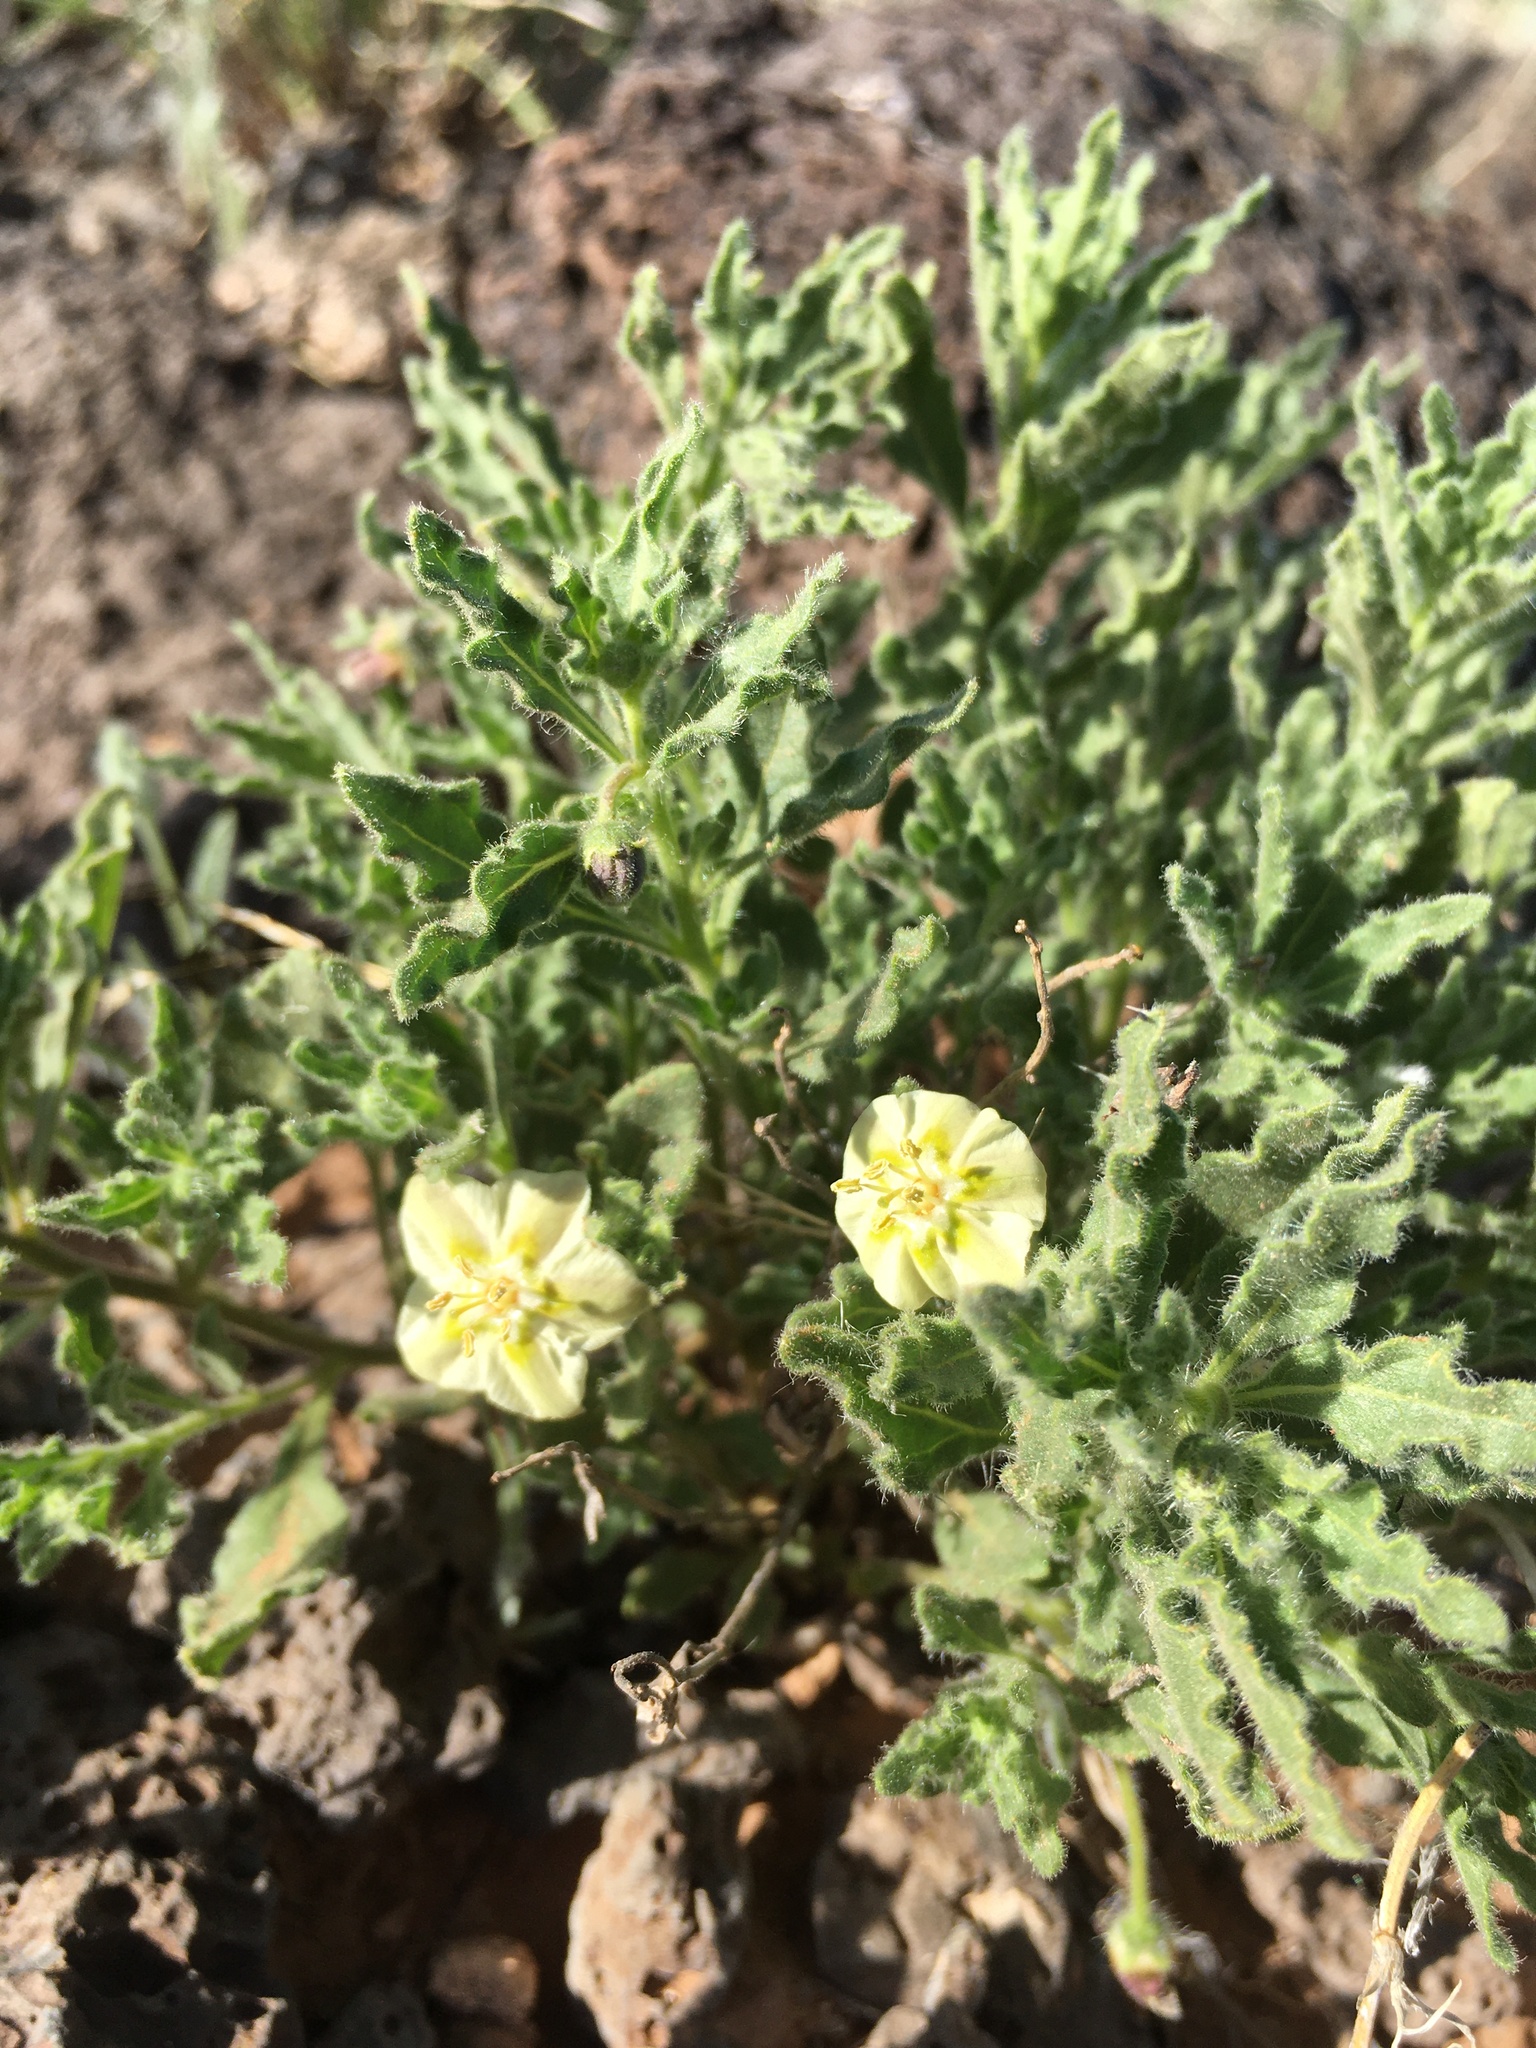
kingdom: Plantae
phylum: Tracheophyta
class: Magnoliopsida
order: Solanales
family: Solanaceae
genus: Chamaesaracha
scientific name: Chamaesaracha sordida
